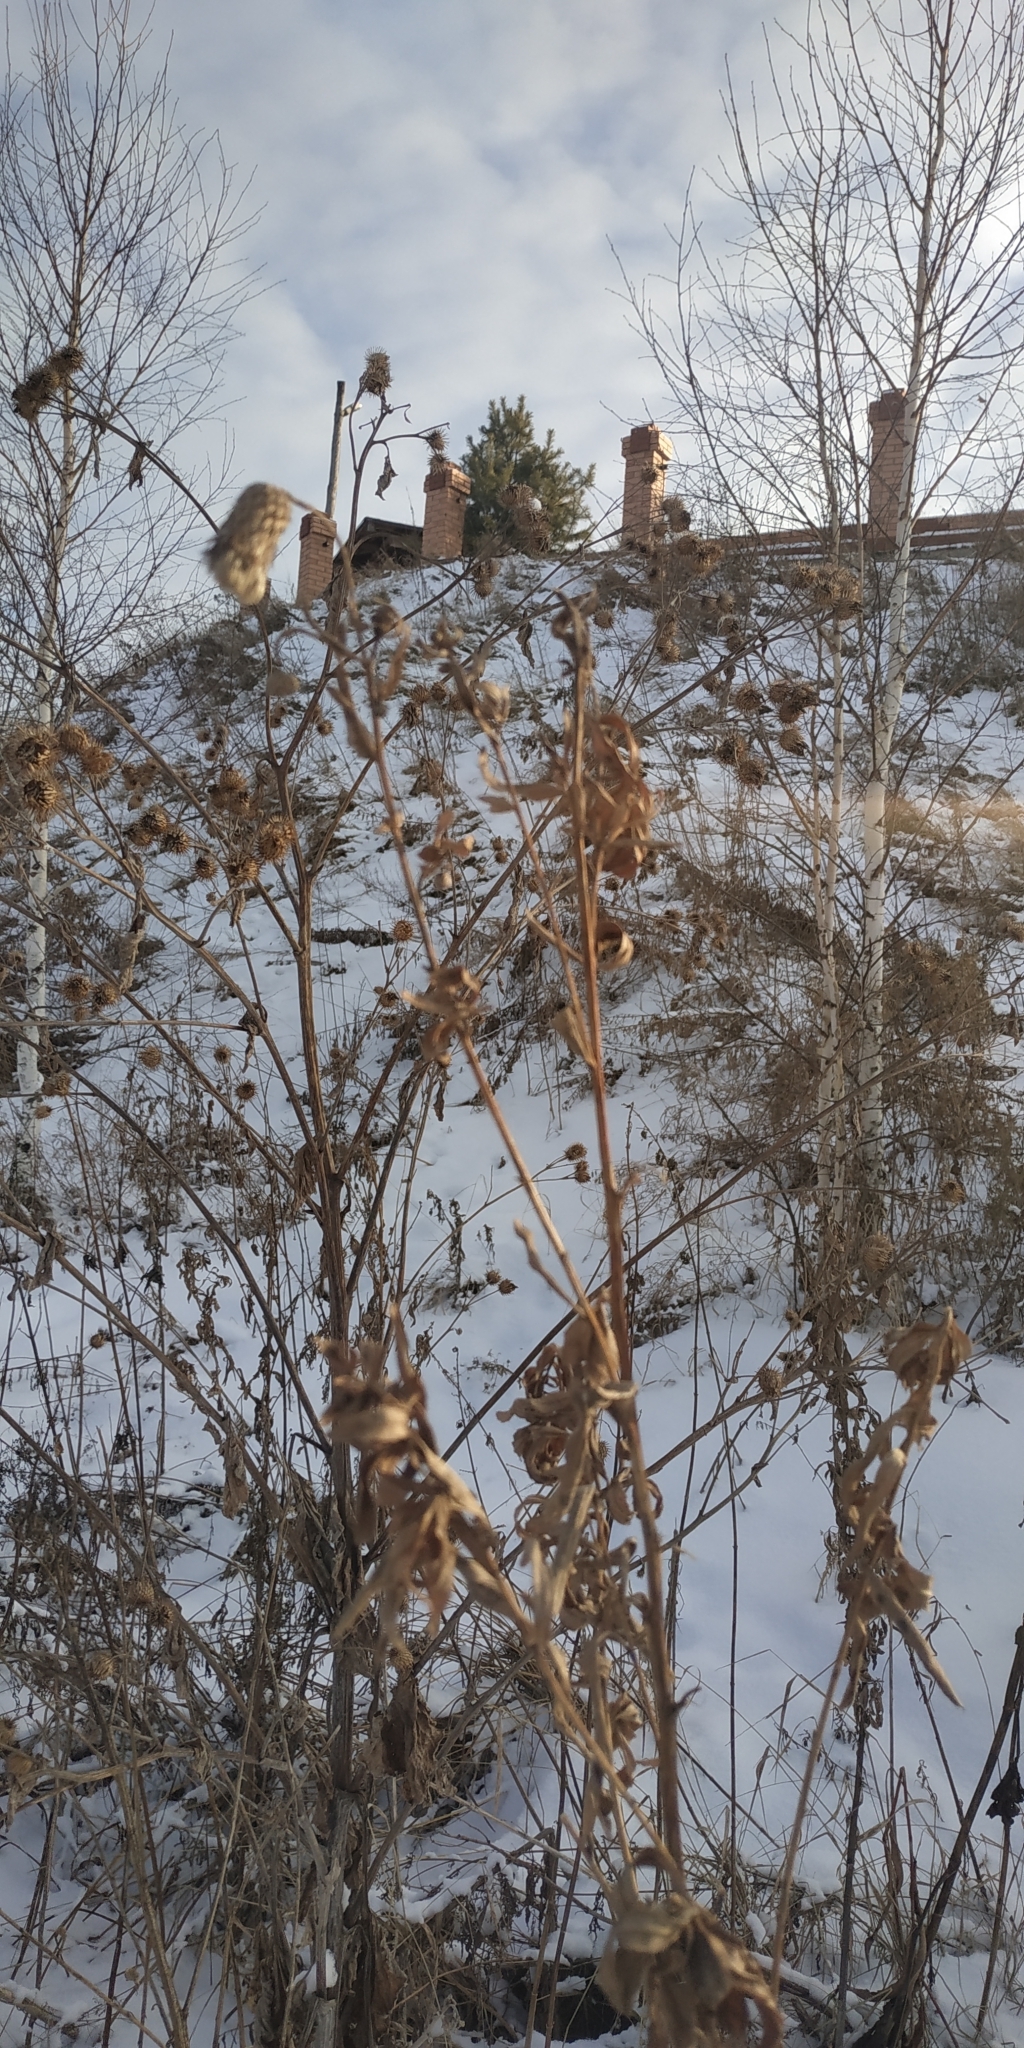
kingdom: Plantae
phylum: Tracheophyta
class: Magnoliopsida
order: Asterales
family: Asteraceae
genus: Cirsium
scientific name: Cirsium arvense
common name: Creeping thistle
